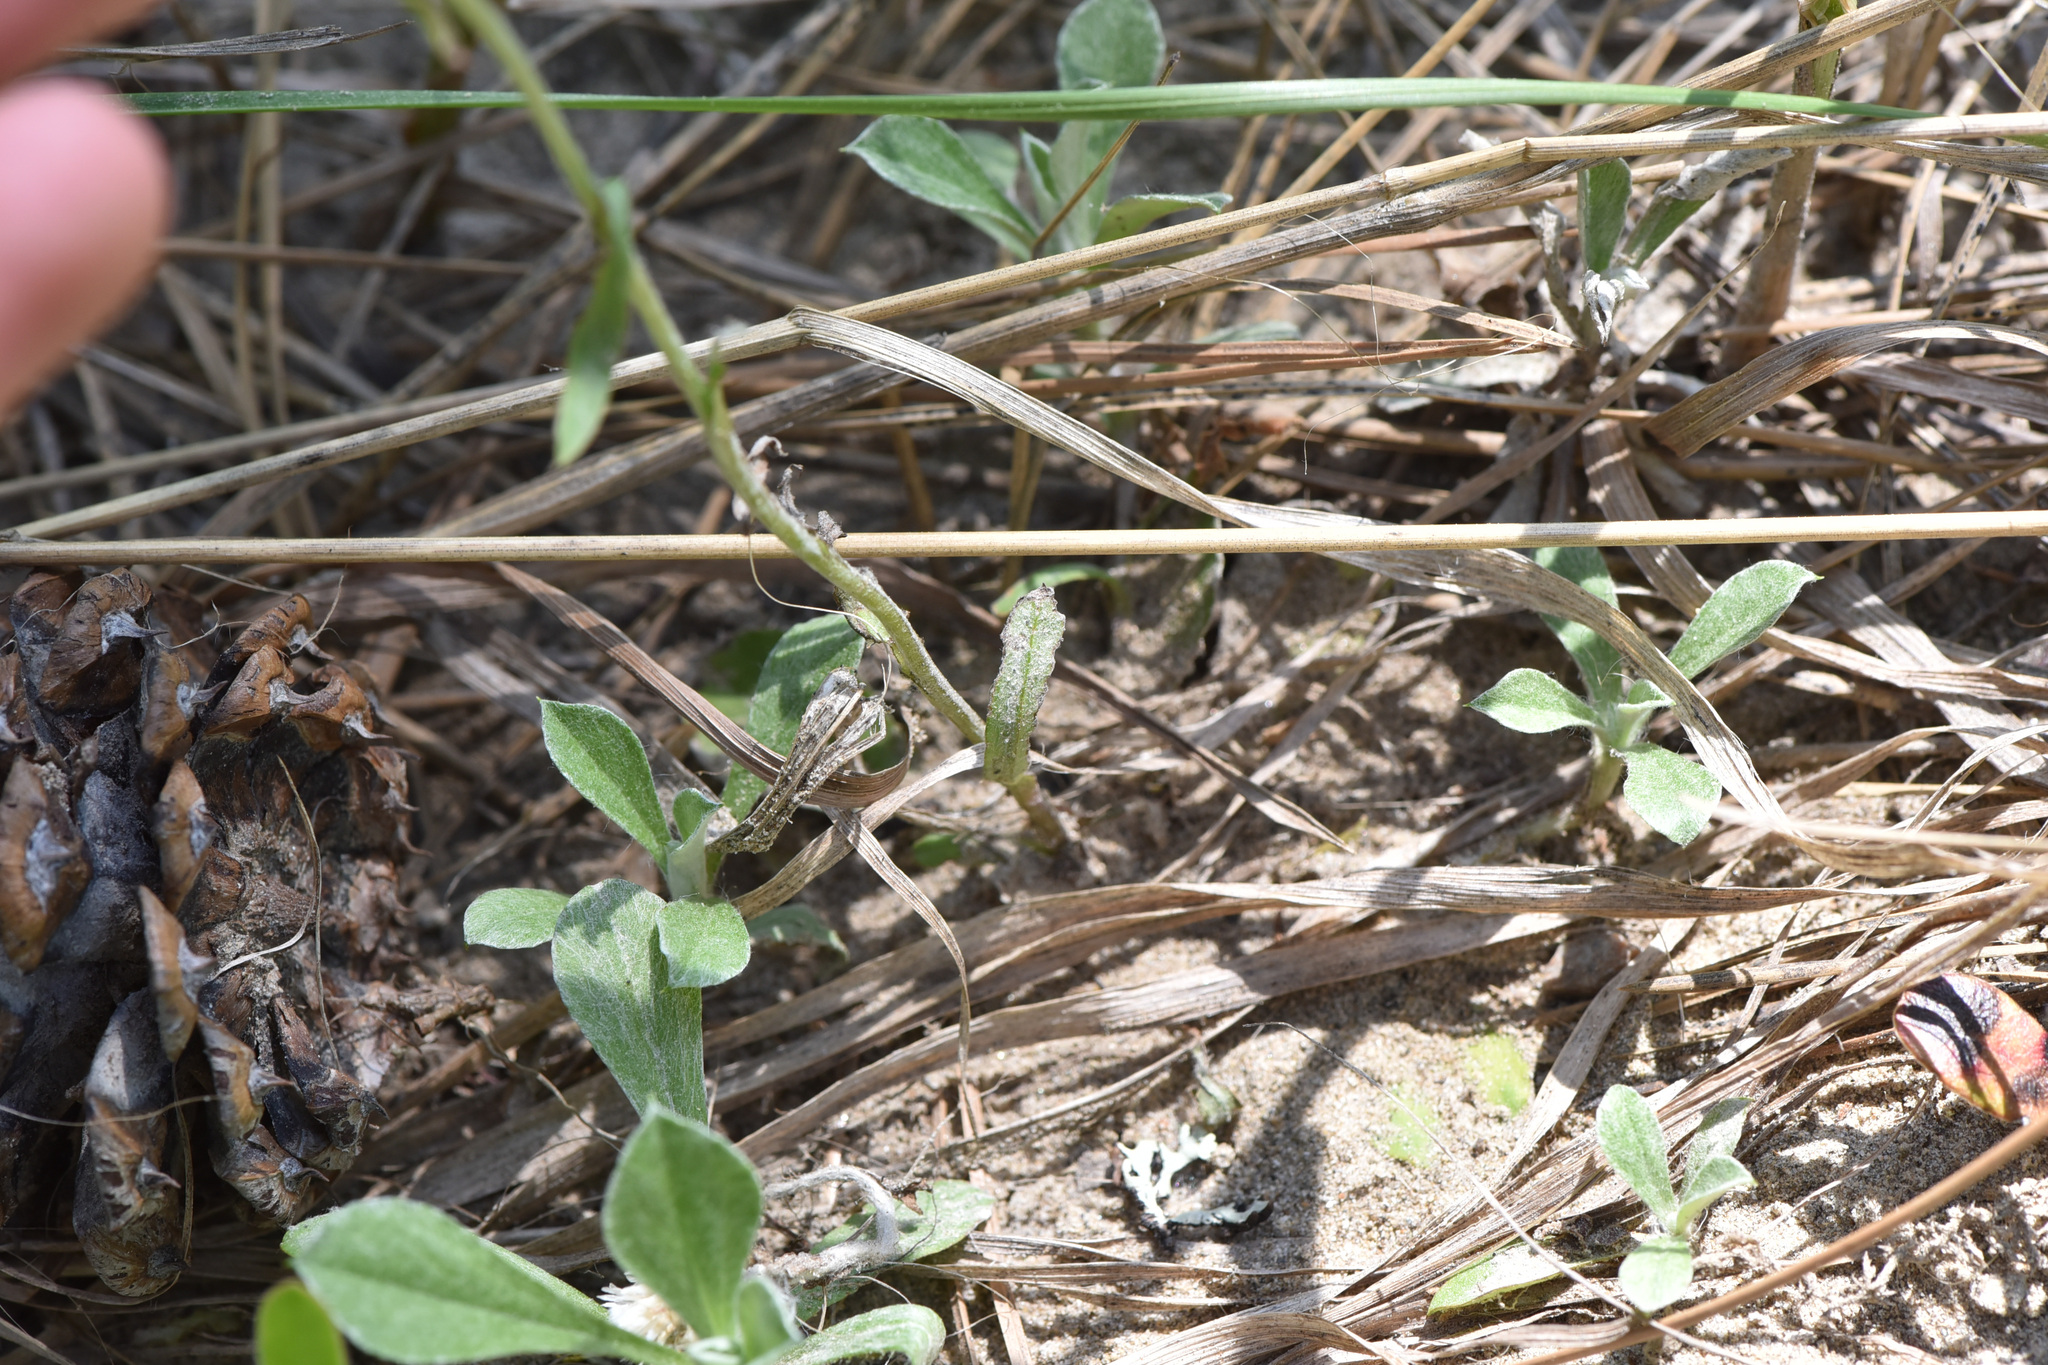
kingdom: Plantae
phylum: Tracheophyta
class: Magnoliopsida
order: Asterales
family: Asteraceae
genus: Antennaria
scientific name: Antennaria howellii
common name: Howell's pussytoes
